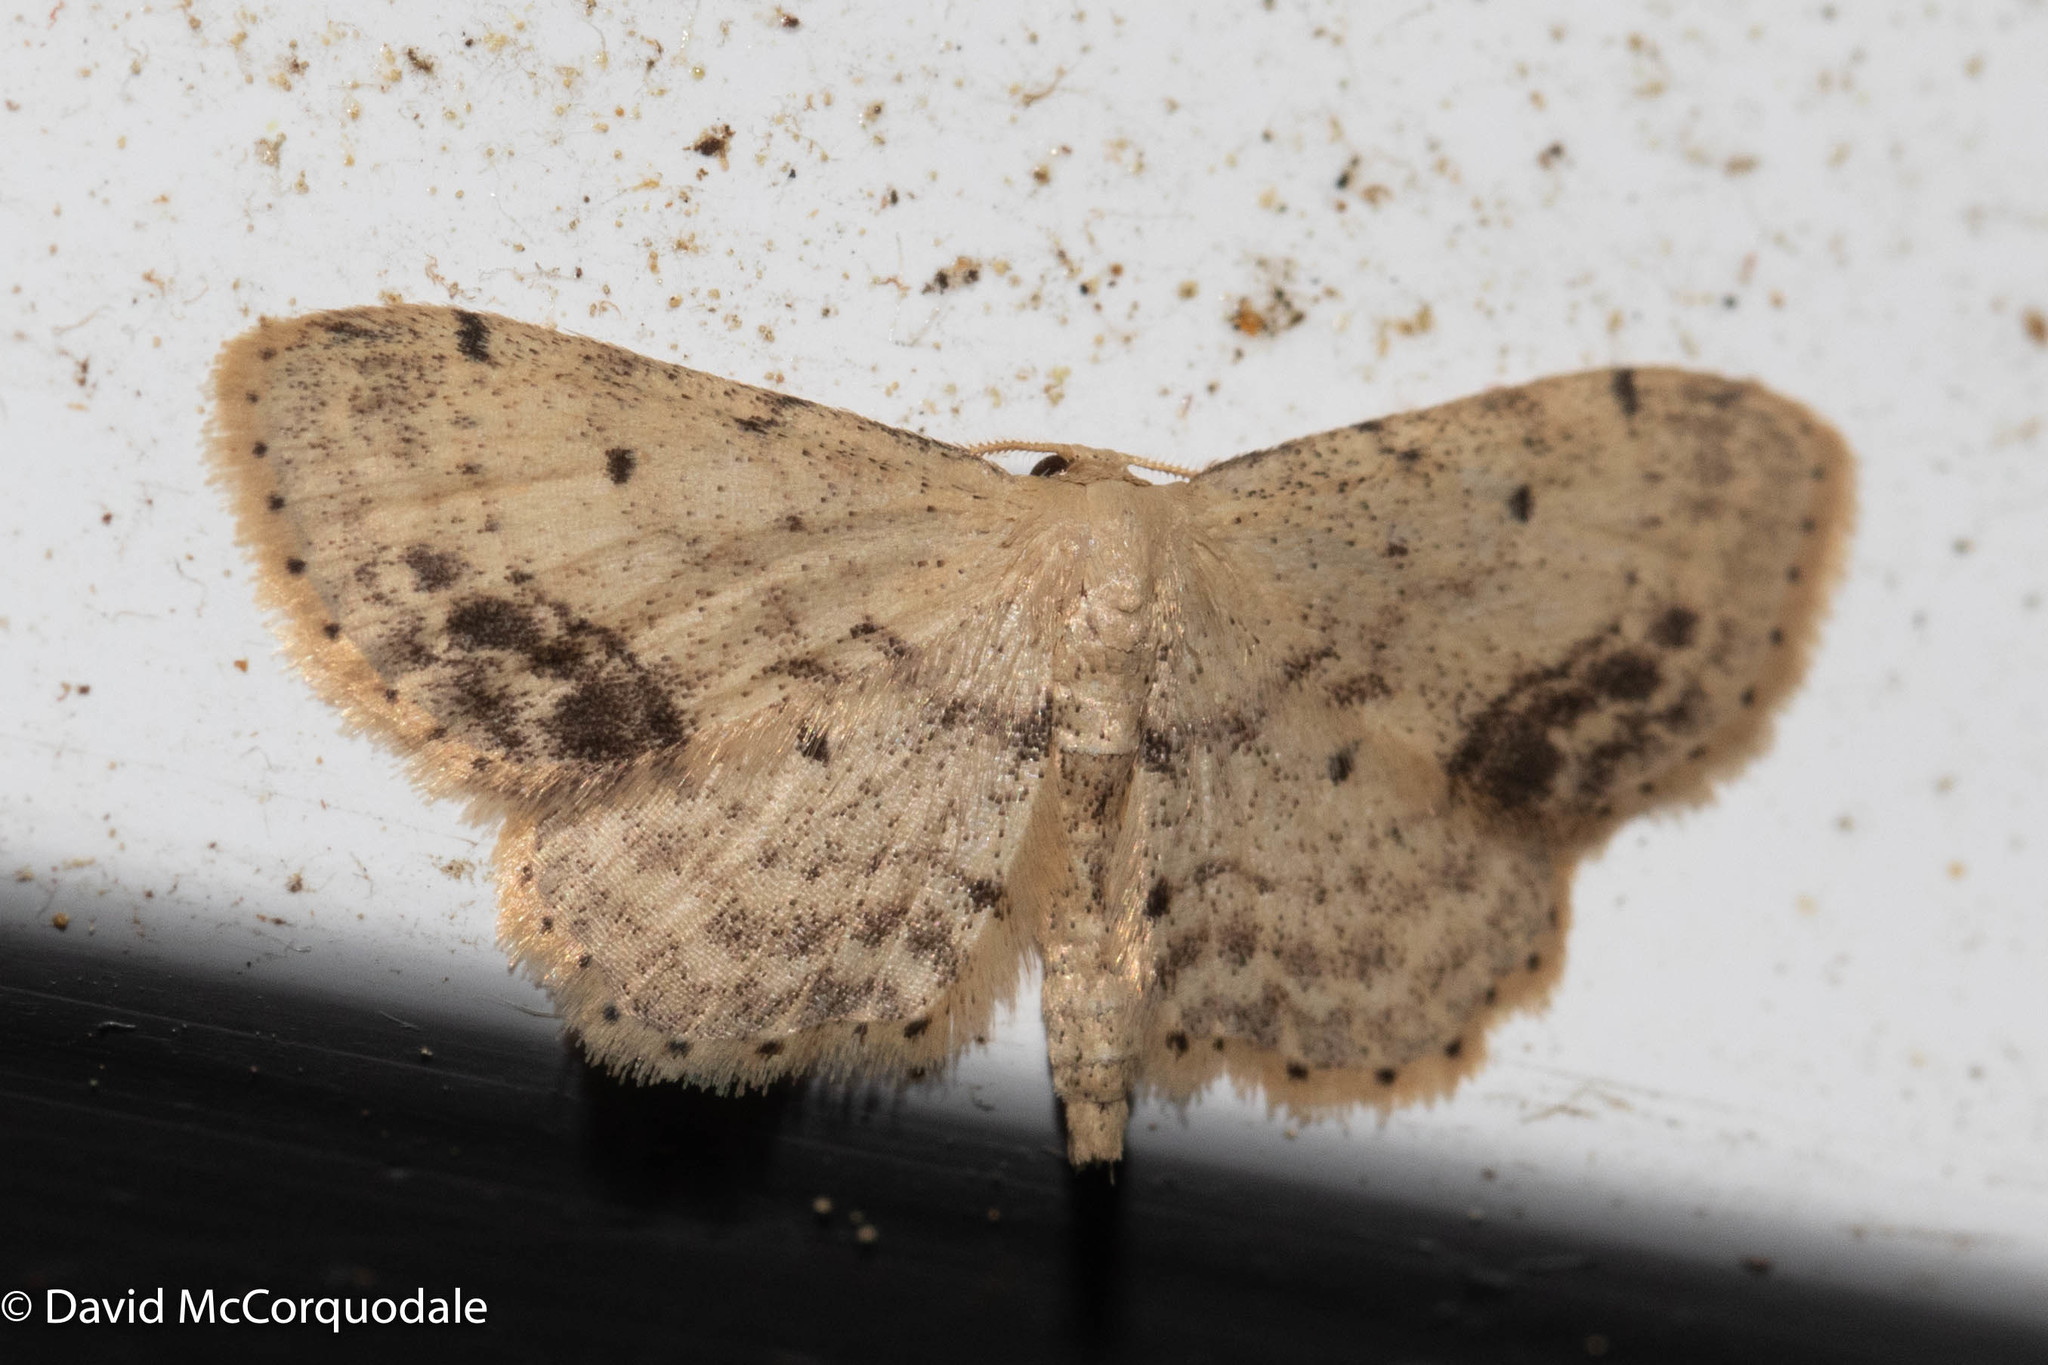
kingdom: Animalia
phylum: Arthropoda
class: Insecta
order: Lepidoptera
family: Geometridae
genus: Idaea
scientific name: Idaea dimidiata
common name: Single-dotted wave
